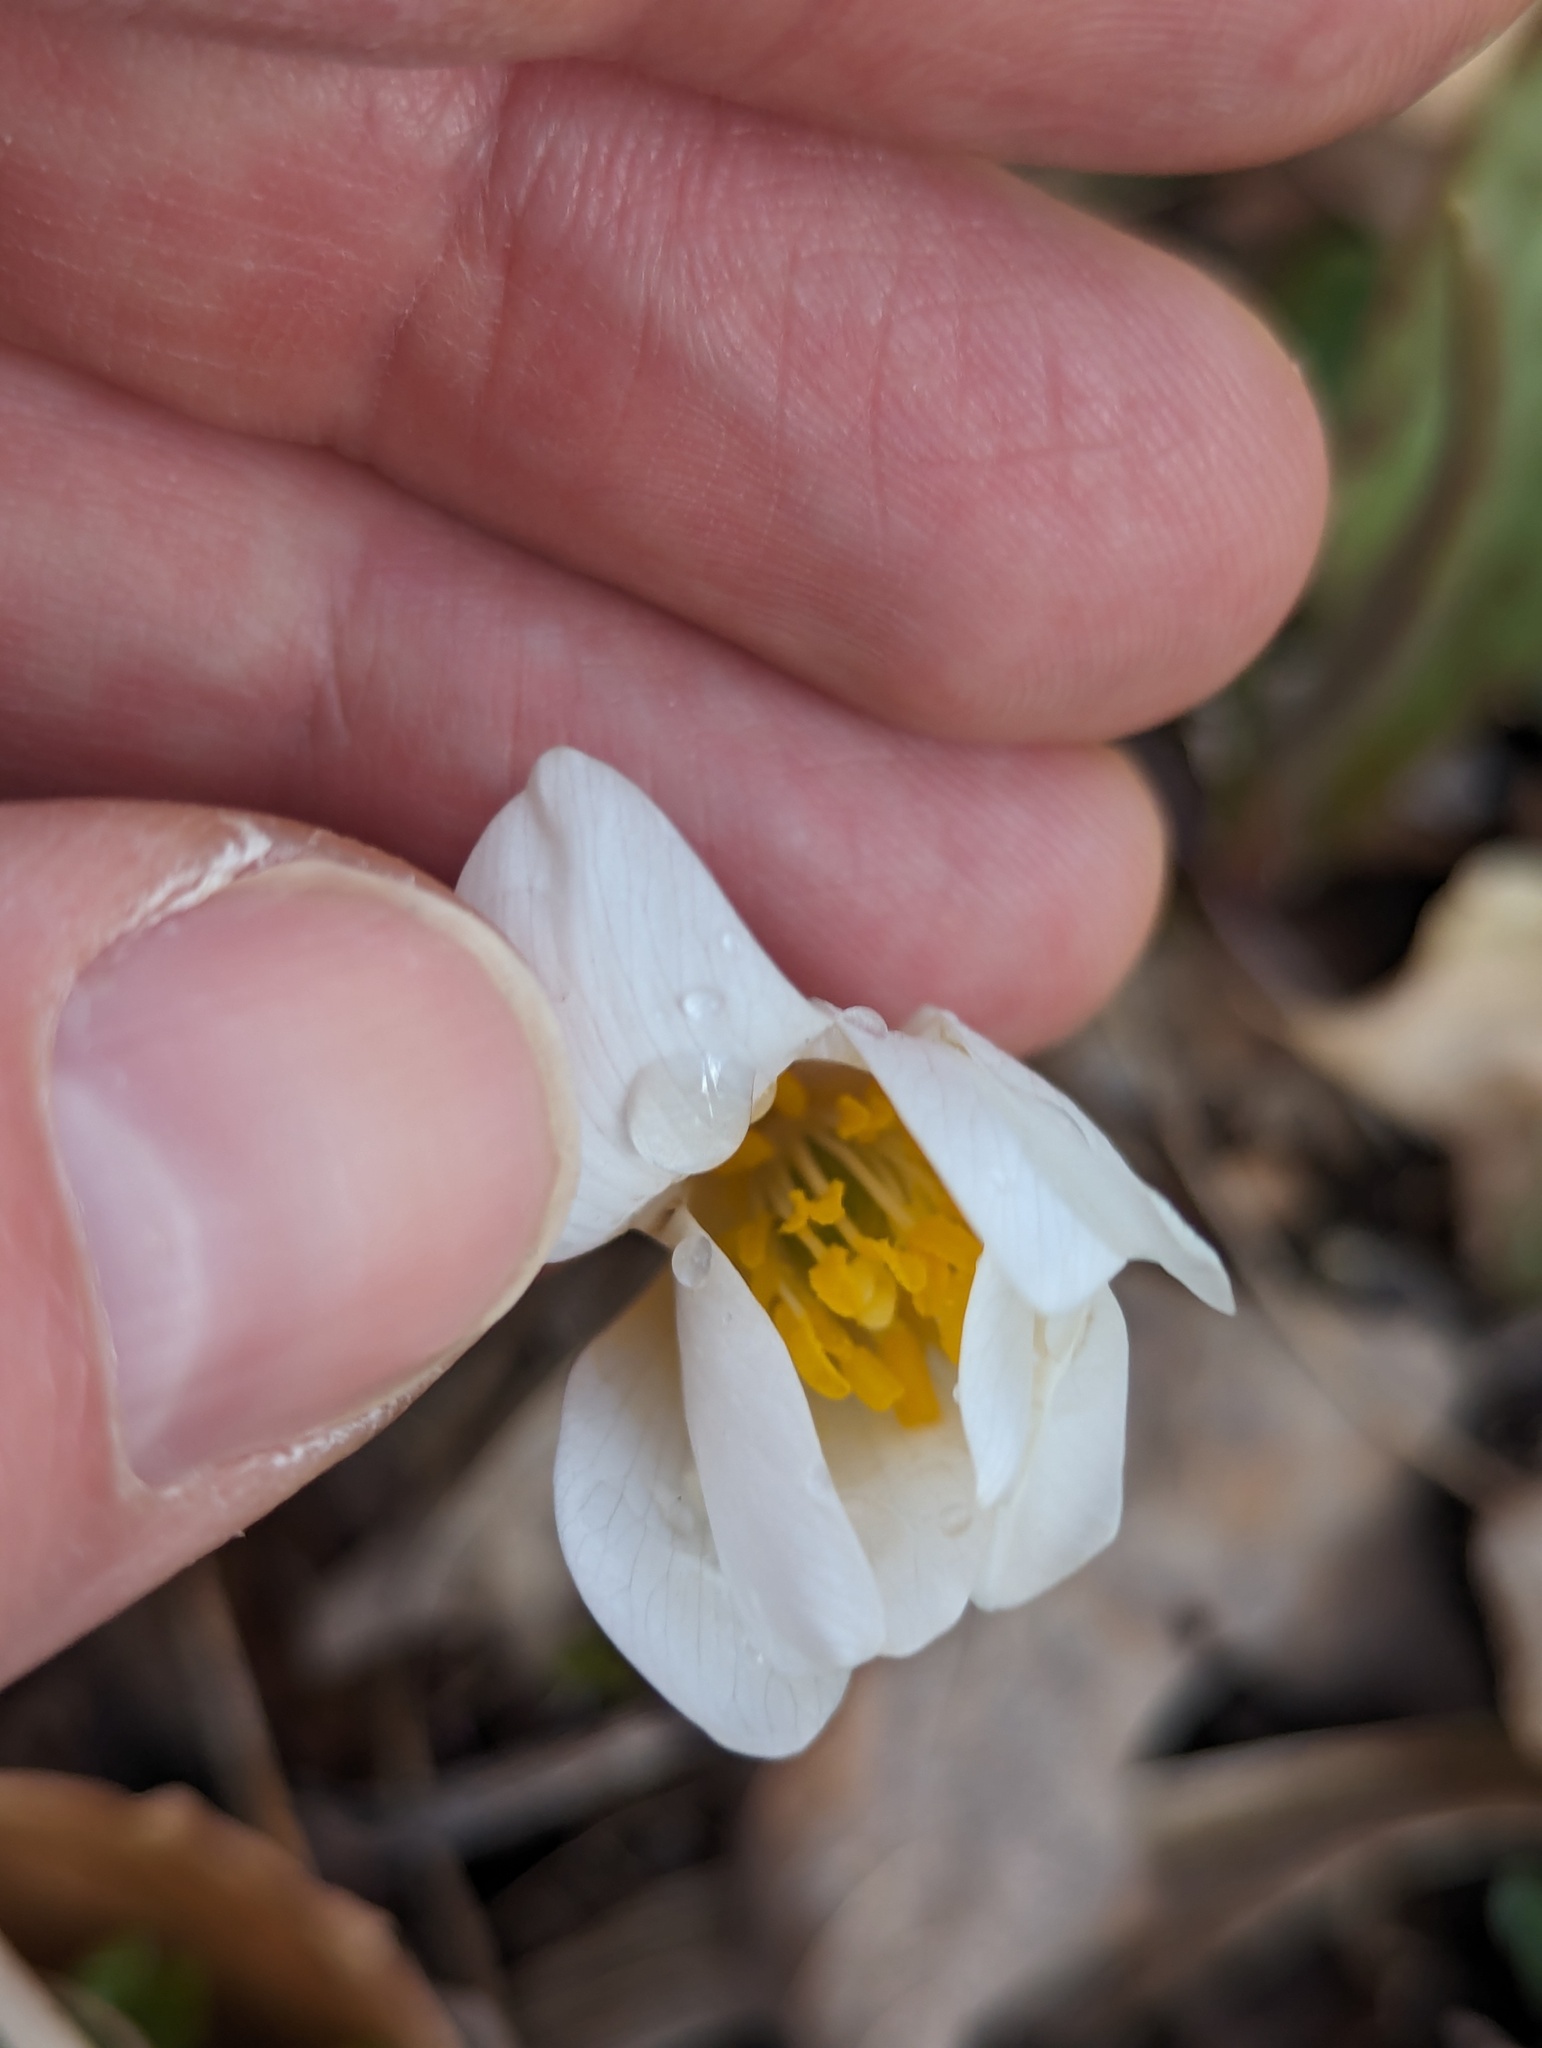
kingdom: Plantae
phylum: Tracheophyta
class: Magnoliopsida
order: Ranunculales
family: Papaveraceae
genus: Sanguinaria
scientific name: Sanguinaria canadensis
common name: Bloodroot
